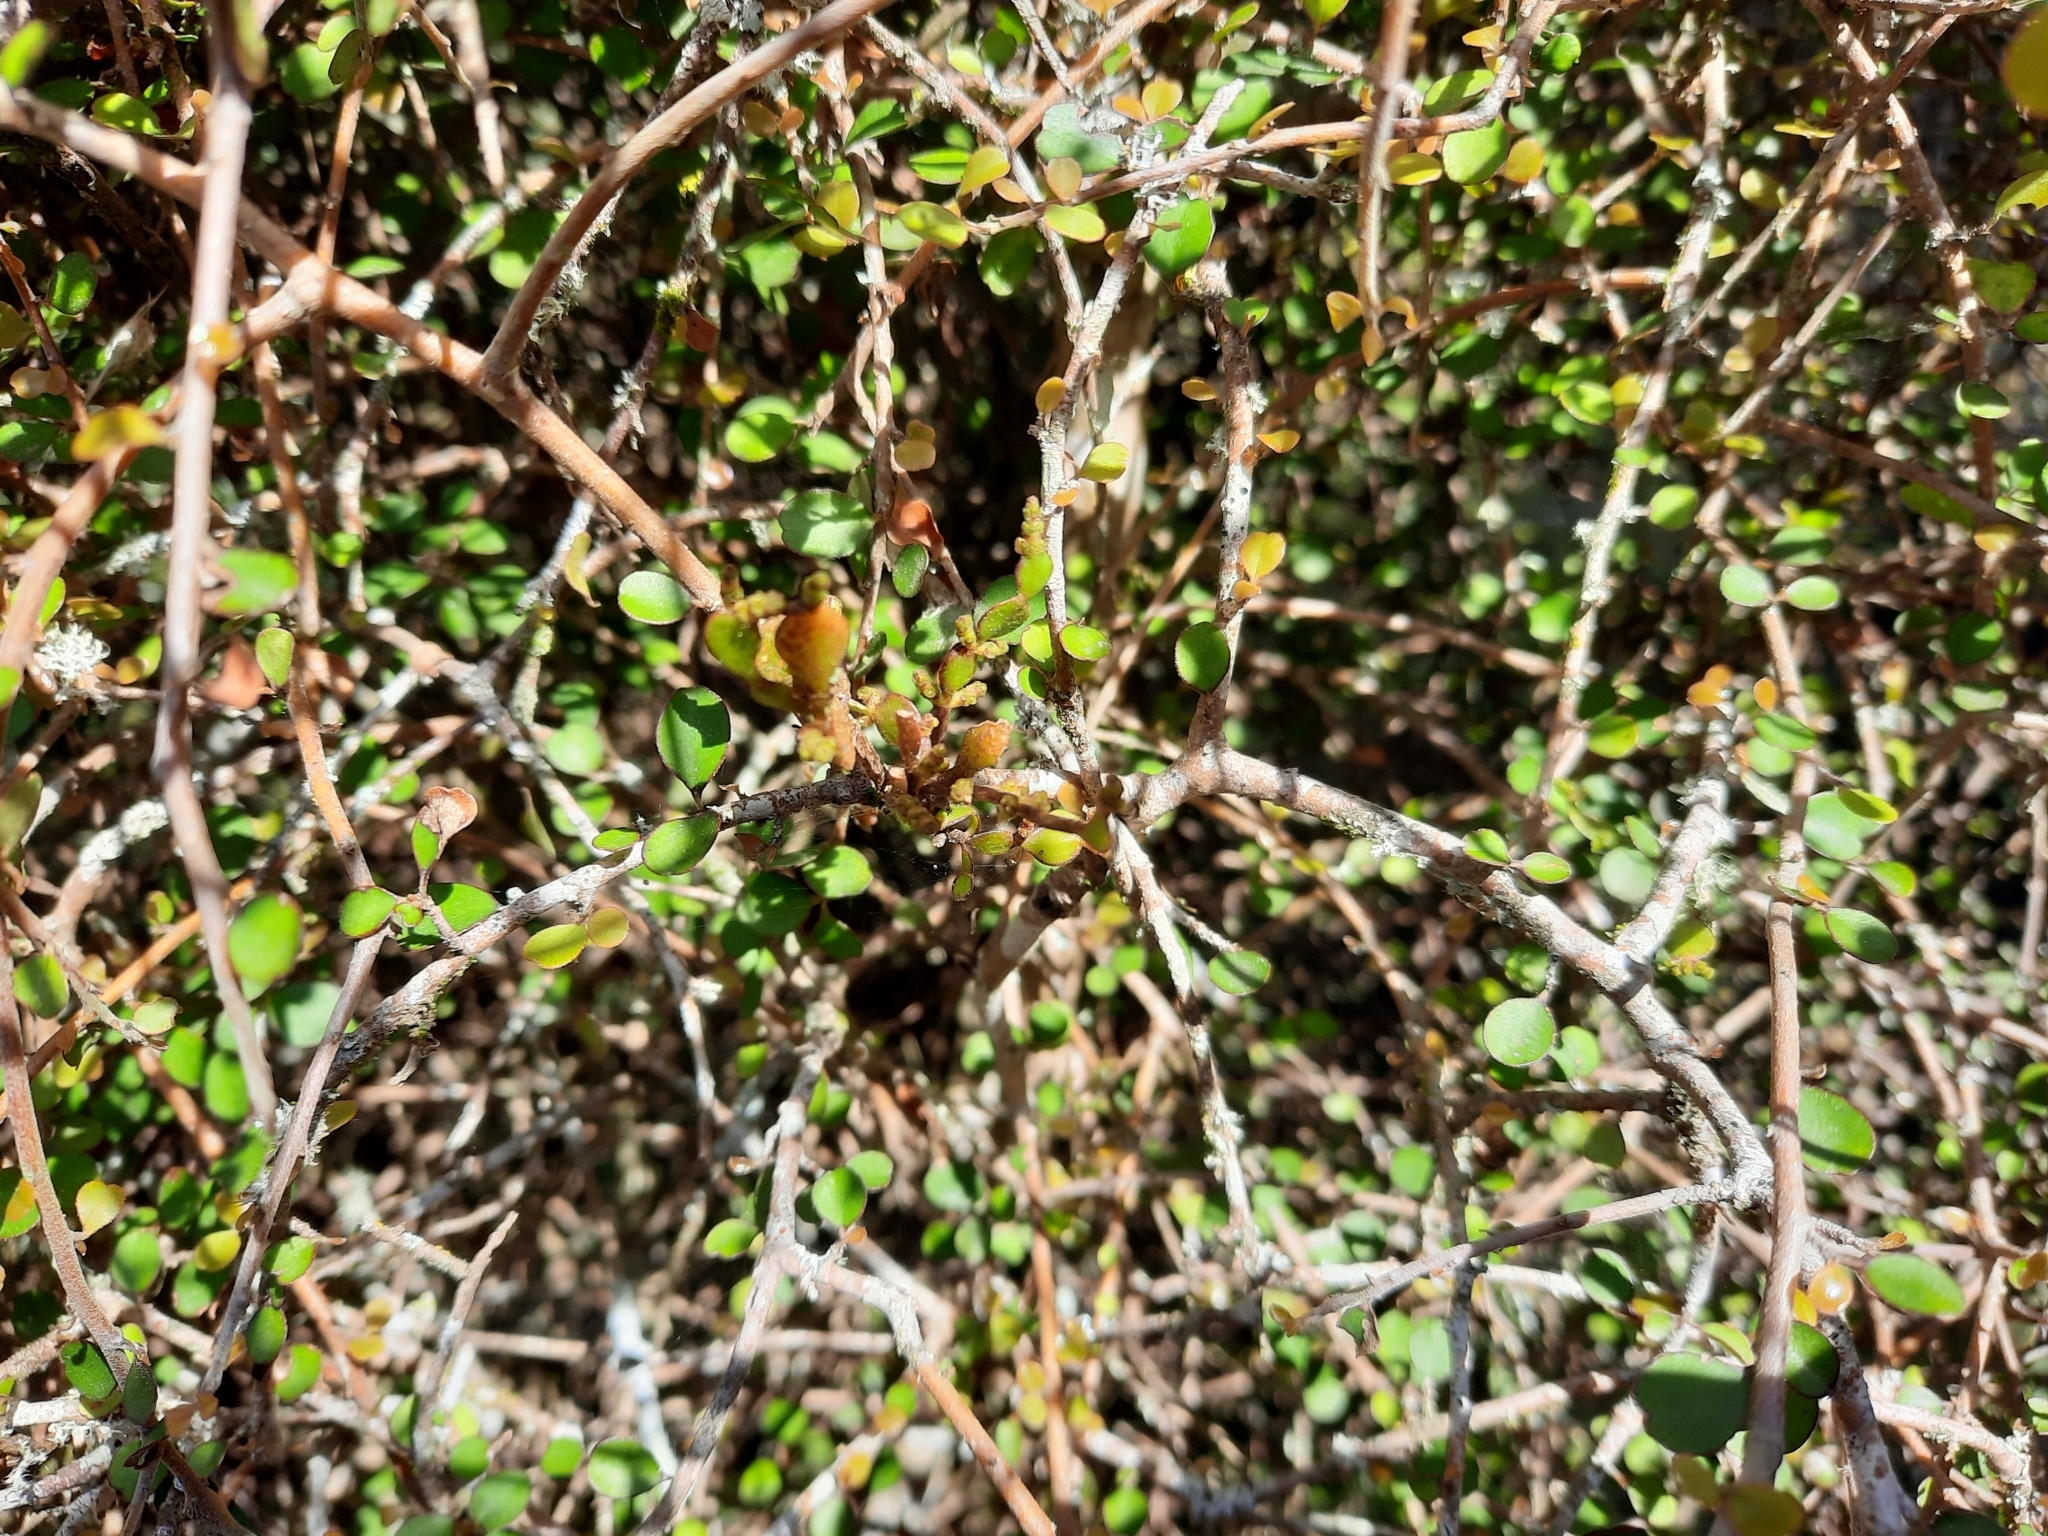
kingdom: Plantae
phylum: Tracheophyta
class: Magnoliopsida
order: Santalales
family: Viscaceae
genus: Korthalsella
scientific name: Korthalsella lindsayi
